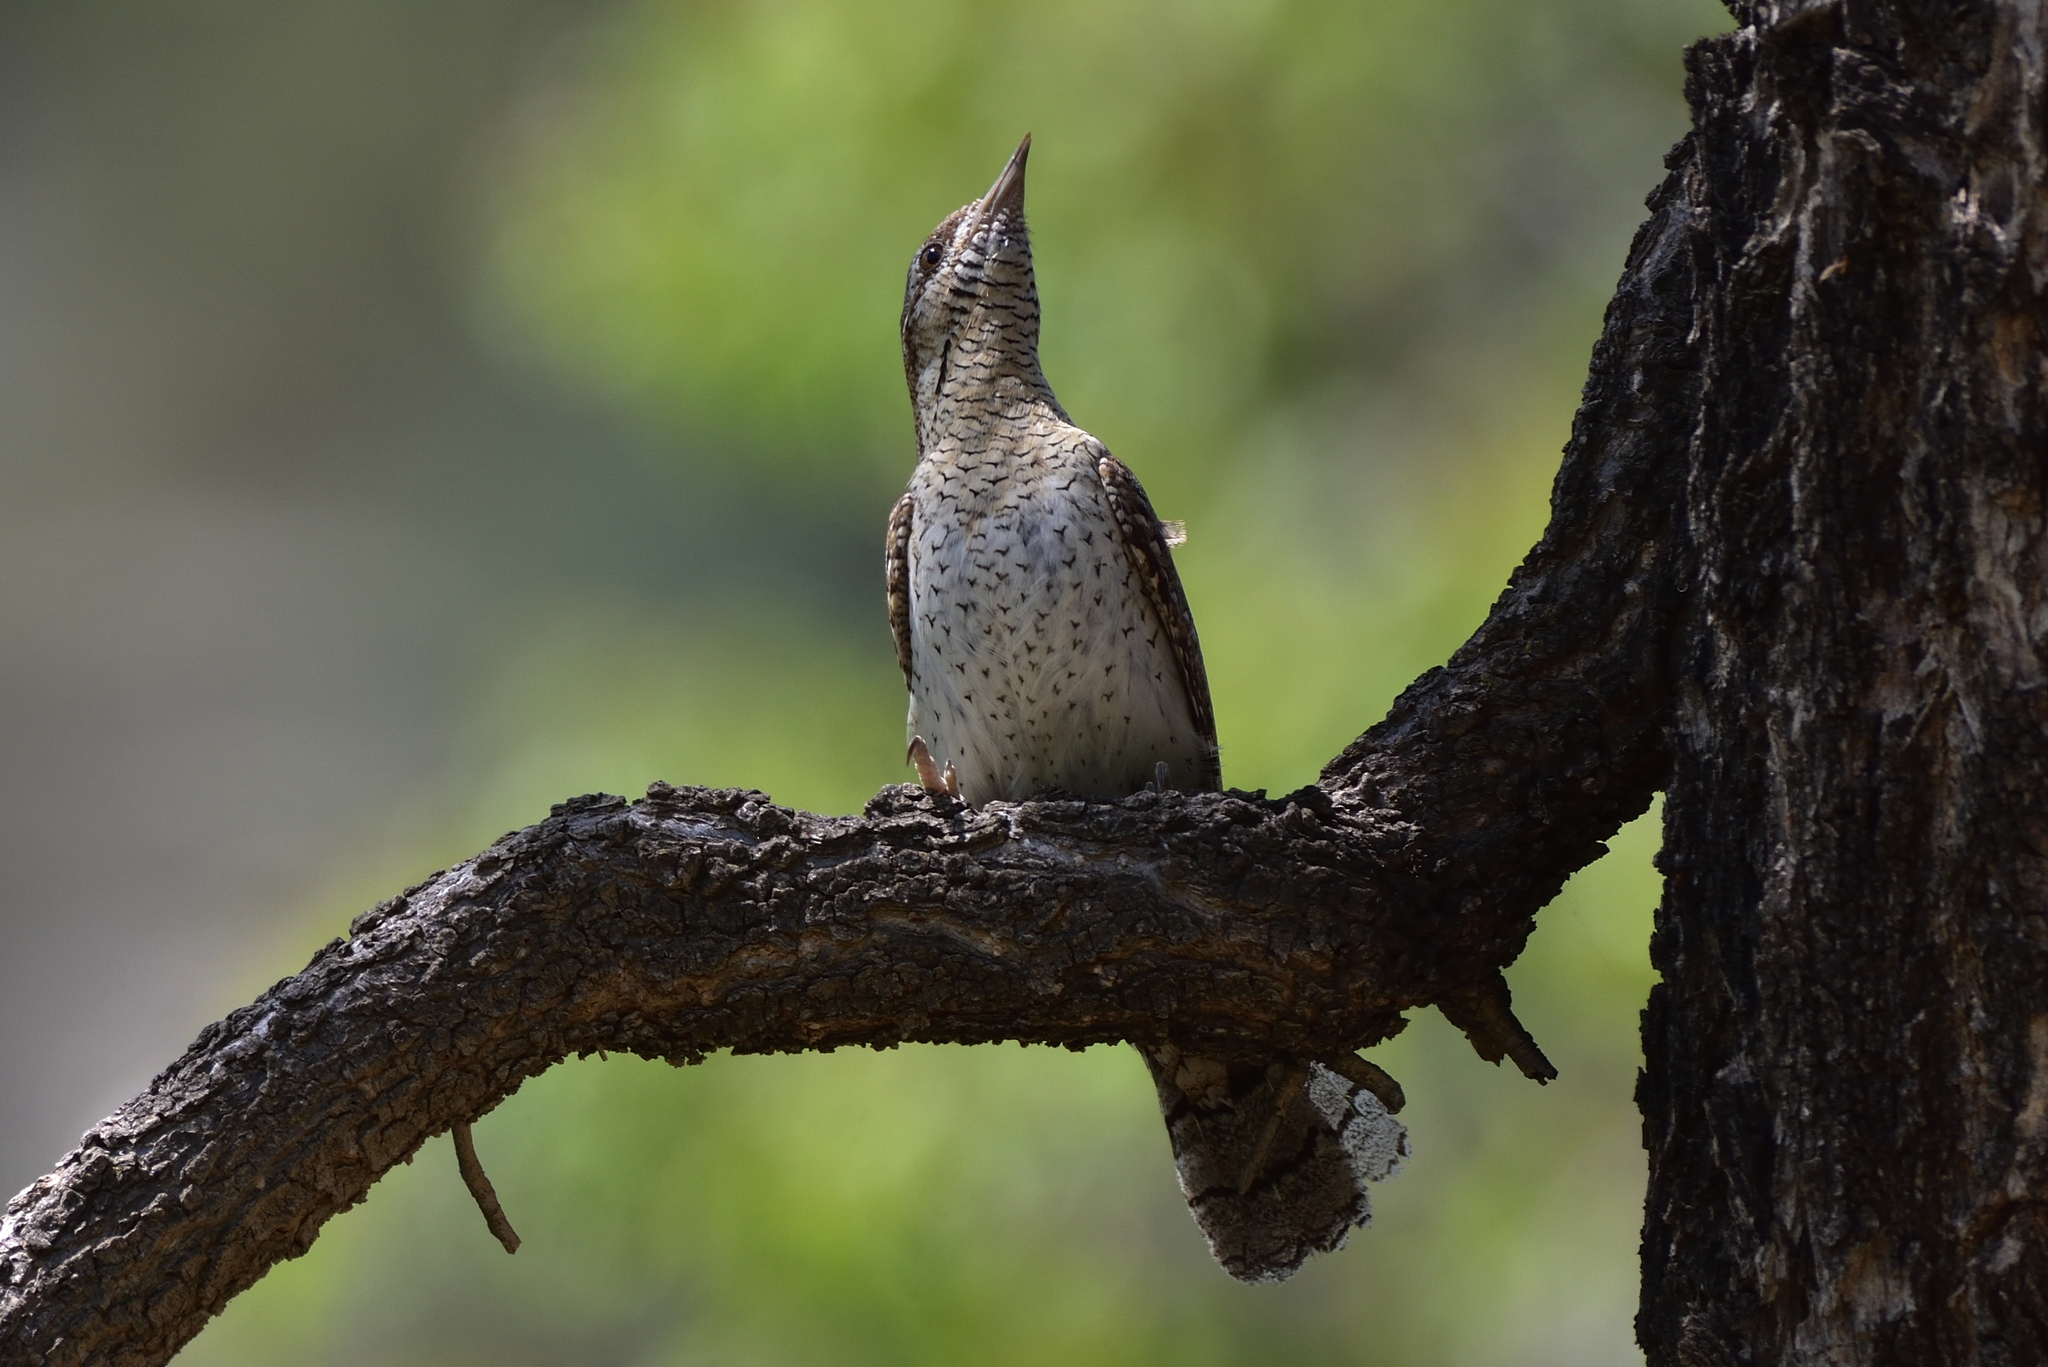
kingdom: Animalia
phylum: Chordata
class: Aves
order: Piciformes
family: Picidae
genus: Jynx
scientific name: Jynx torquilla
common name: Eurasian wryneck
